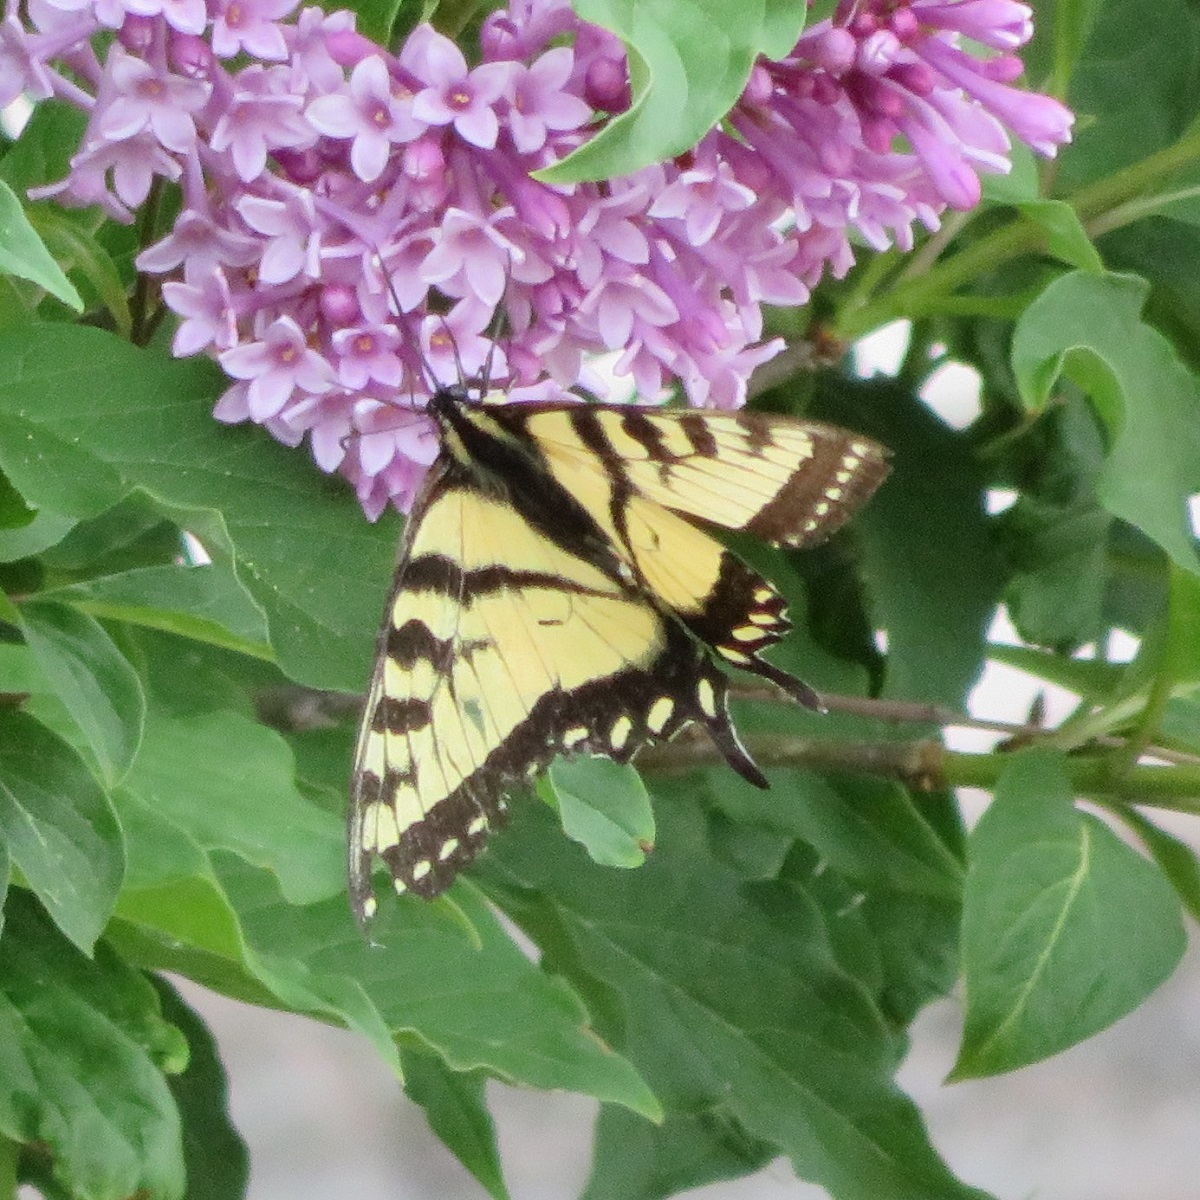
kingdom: Animalia
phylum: Arthropoda
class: Insecta
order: Lepidoptera
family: Papilionidae
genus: Papilio
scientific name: Papilio canadensis
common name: Canadian tiger swallowtail
